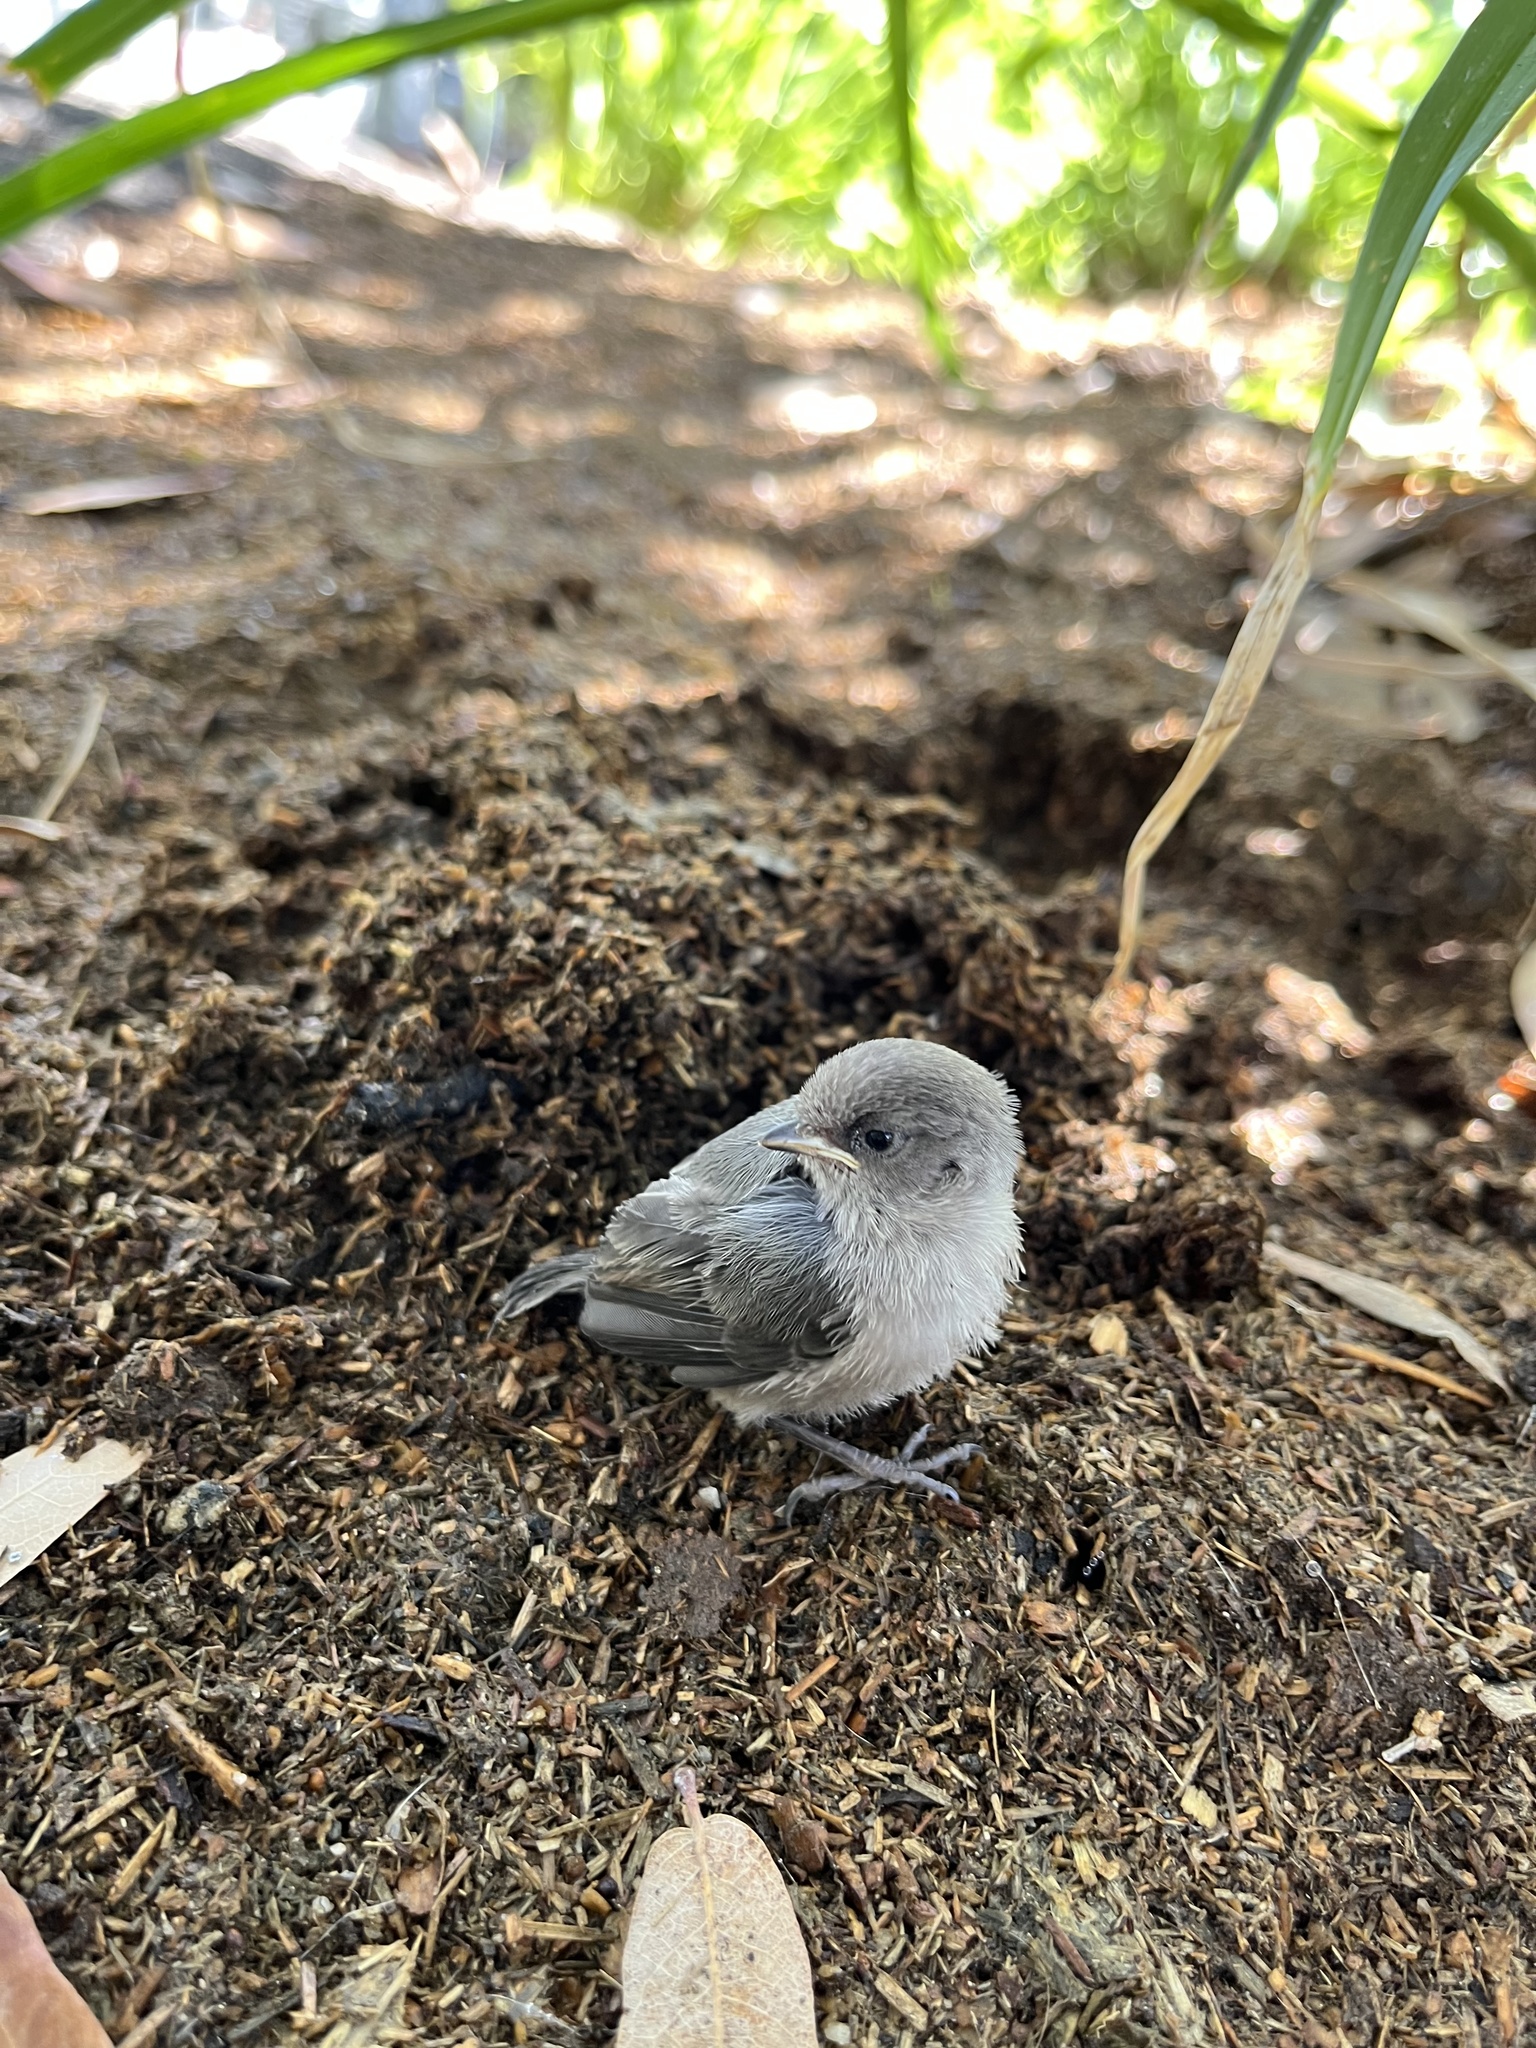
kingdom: Animalia
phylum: Chordata
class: Aves
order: Passeriformes
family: Aegithalidae
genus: Psaltriparus
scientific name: Psaltriparus minimus
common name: American bushtit
